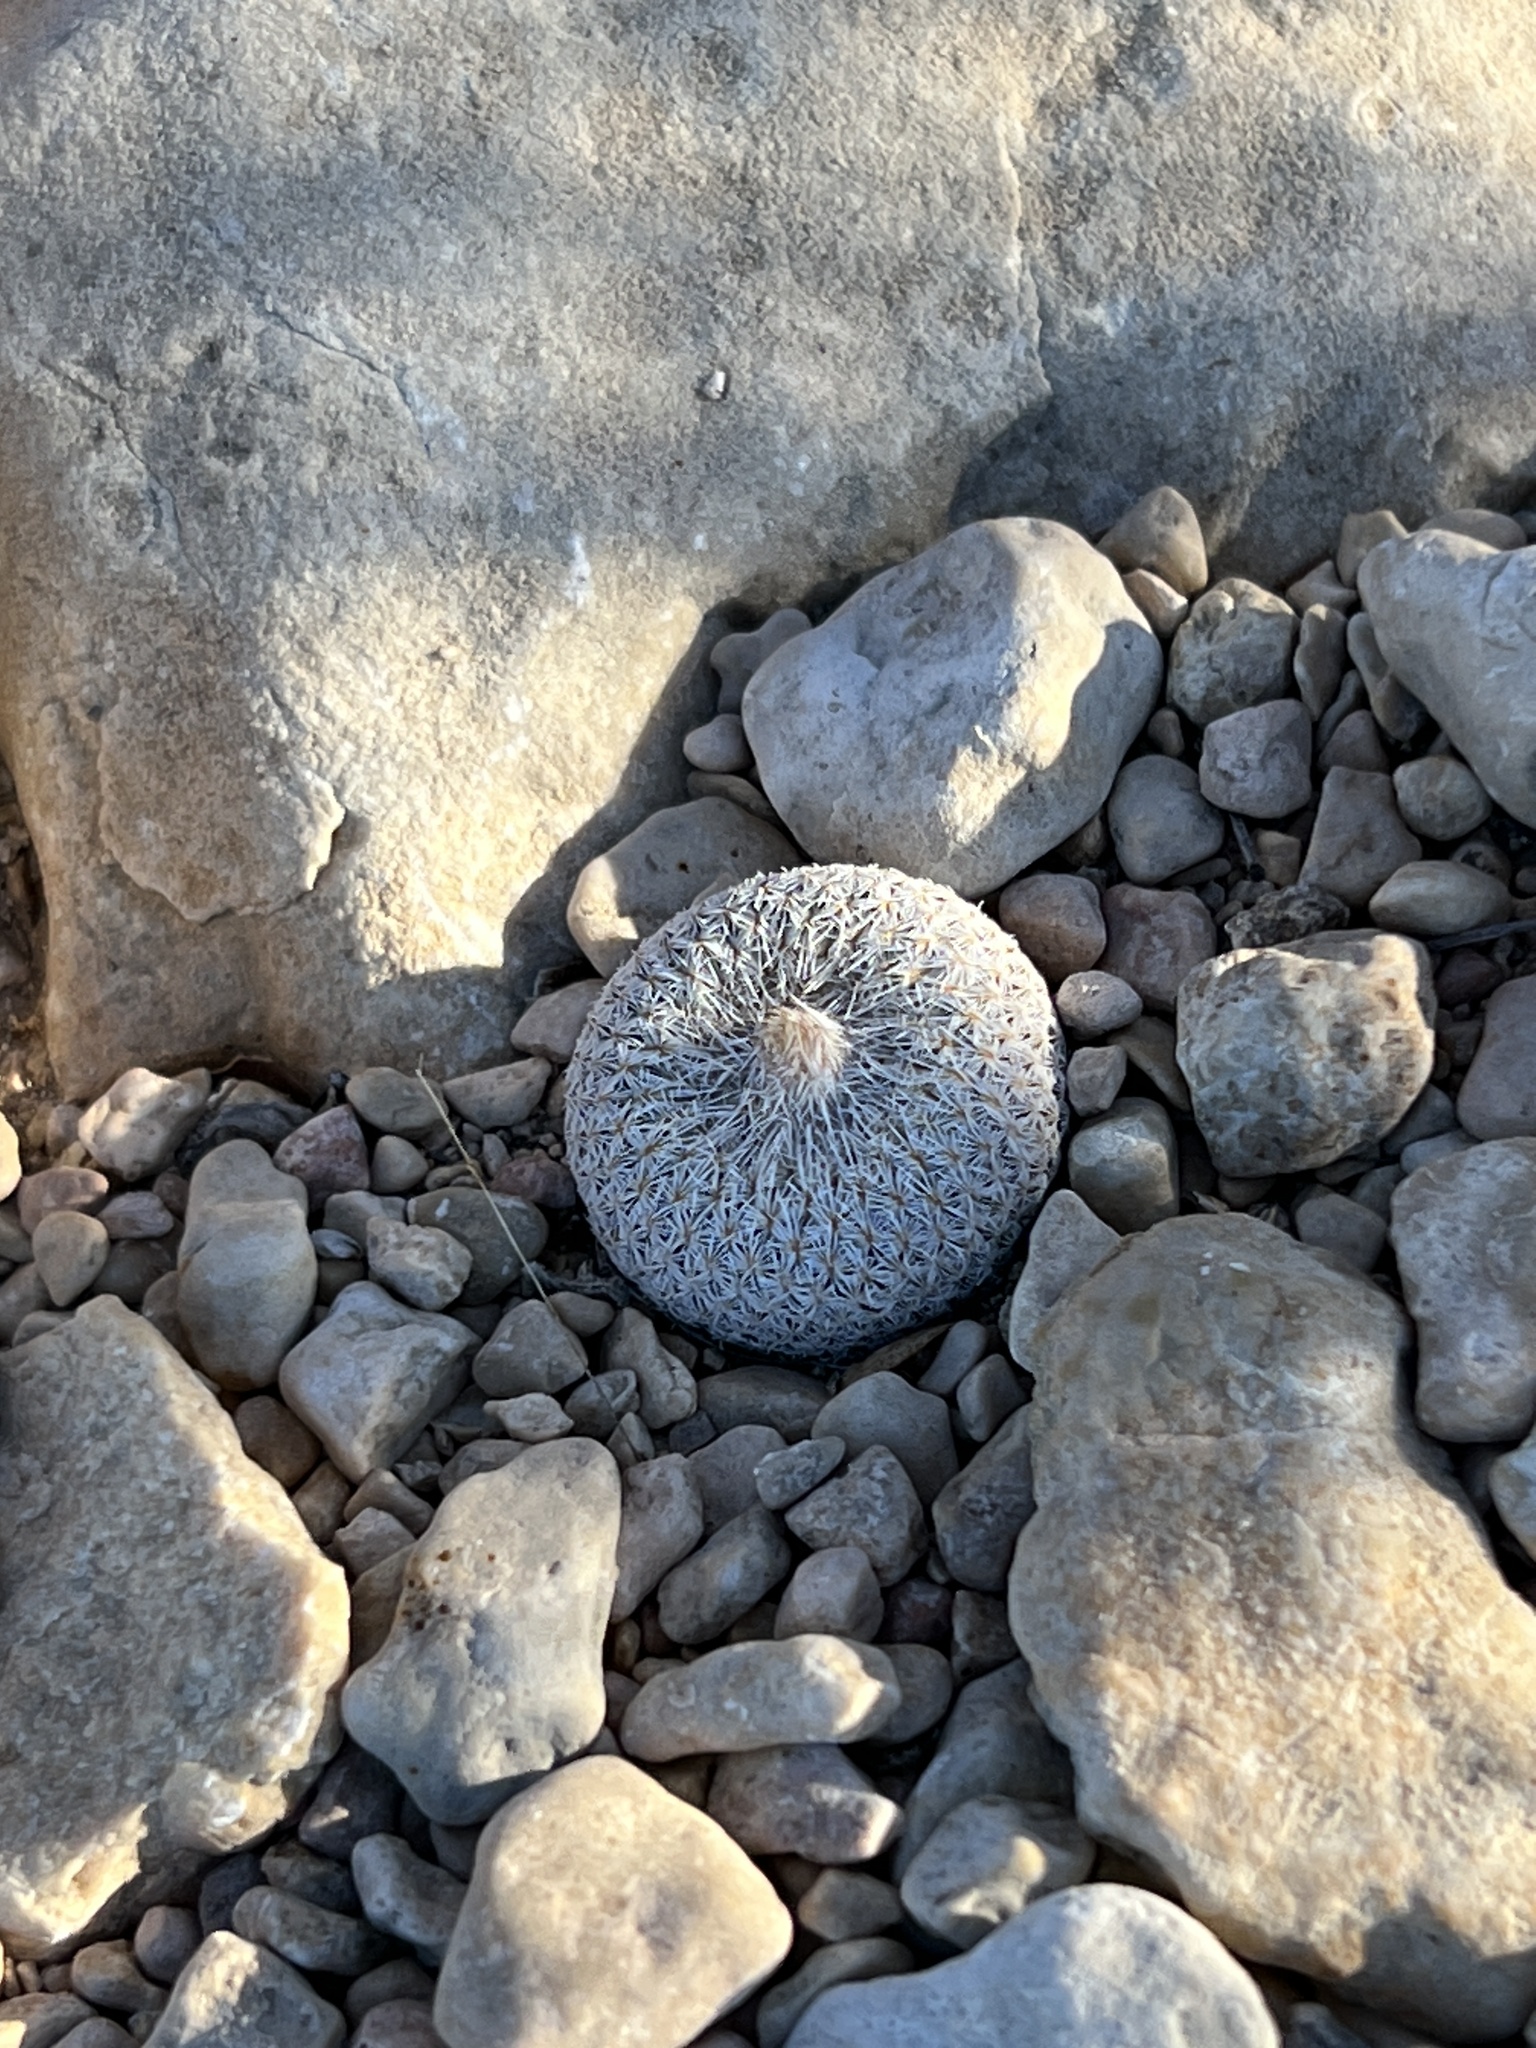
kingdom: Plantae
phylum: Tracheophyta
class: Magnoliopsida
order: Caryophyllales
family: Cactaceae
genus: Epithelantha
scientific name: Epithelantha micromeris
